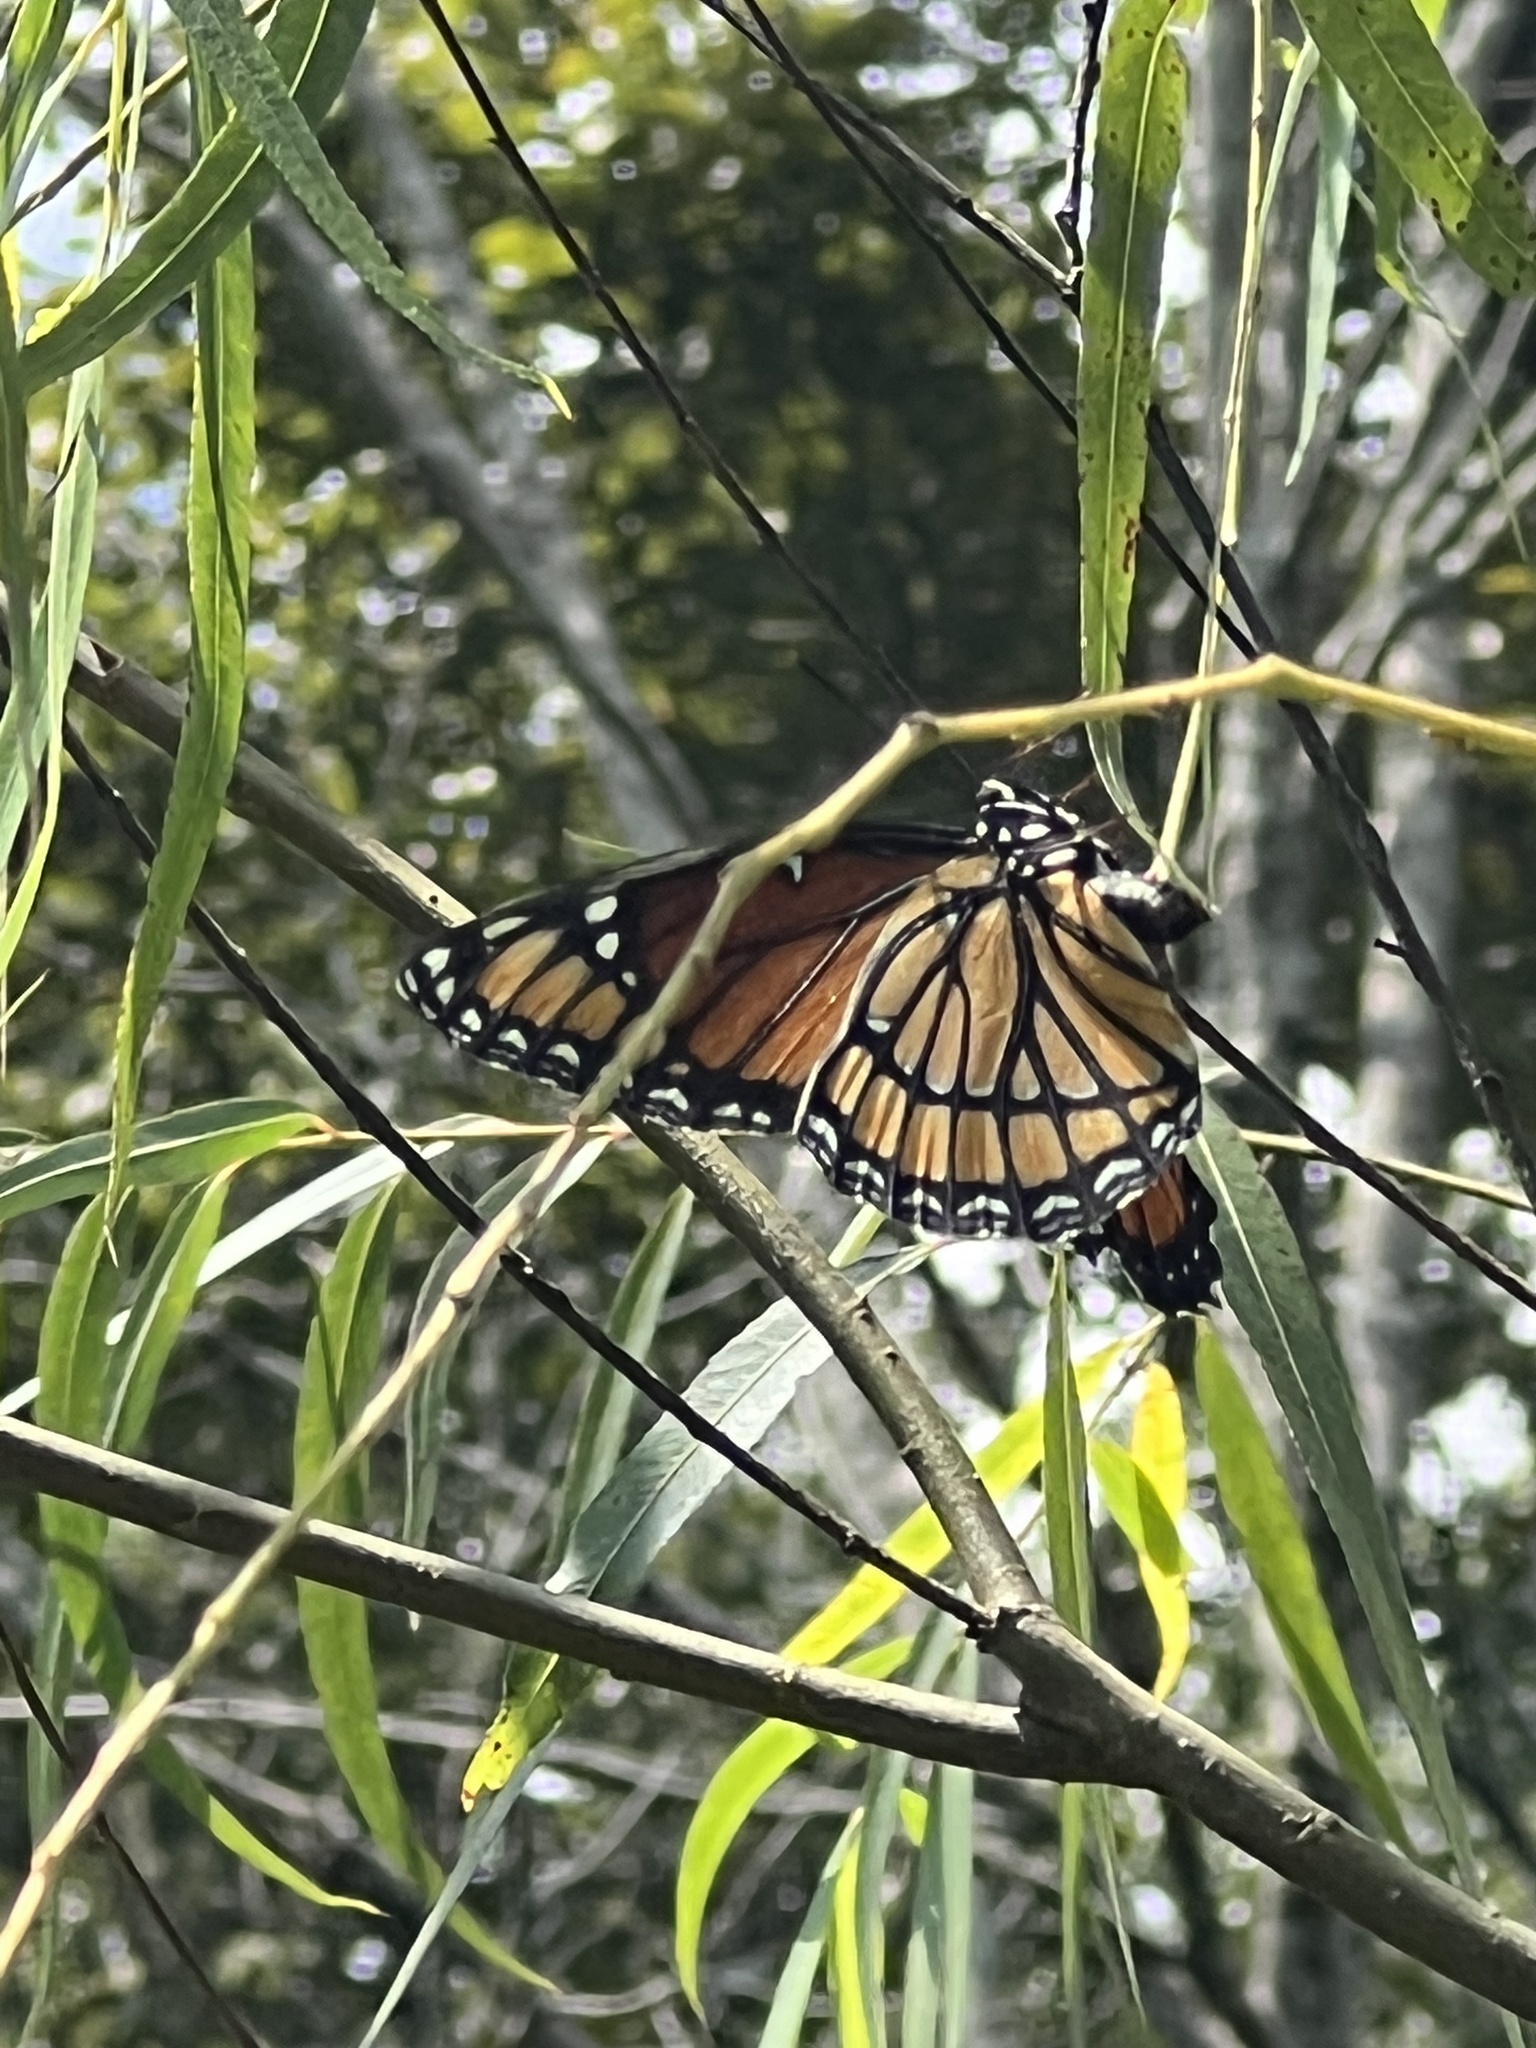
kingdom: Animalia
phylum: Arthropoda
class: Insecta
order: Lepidoptera
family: Nymphalidae
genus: Limenitis
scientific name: Limenitis archippus
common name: Viceroy
